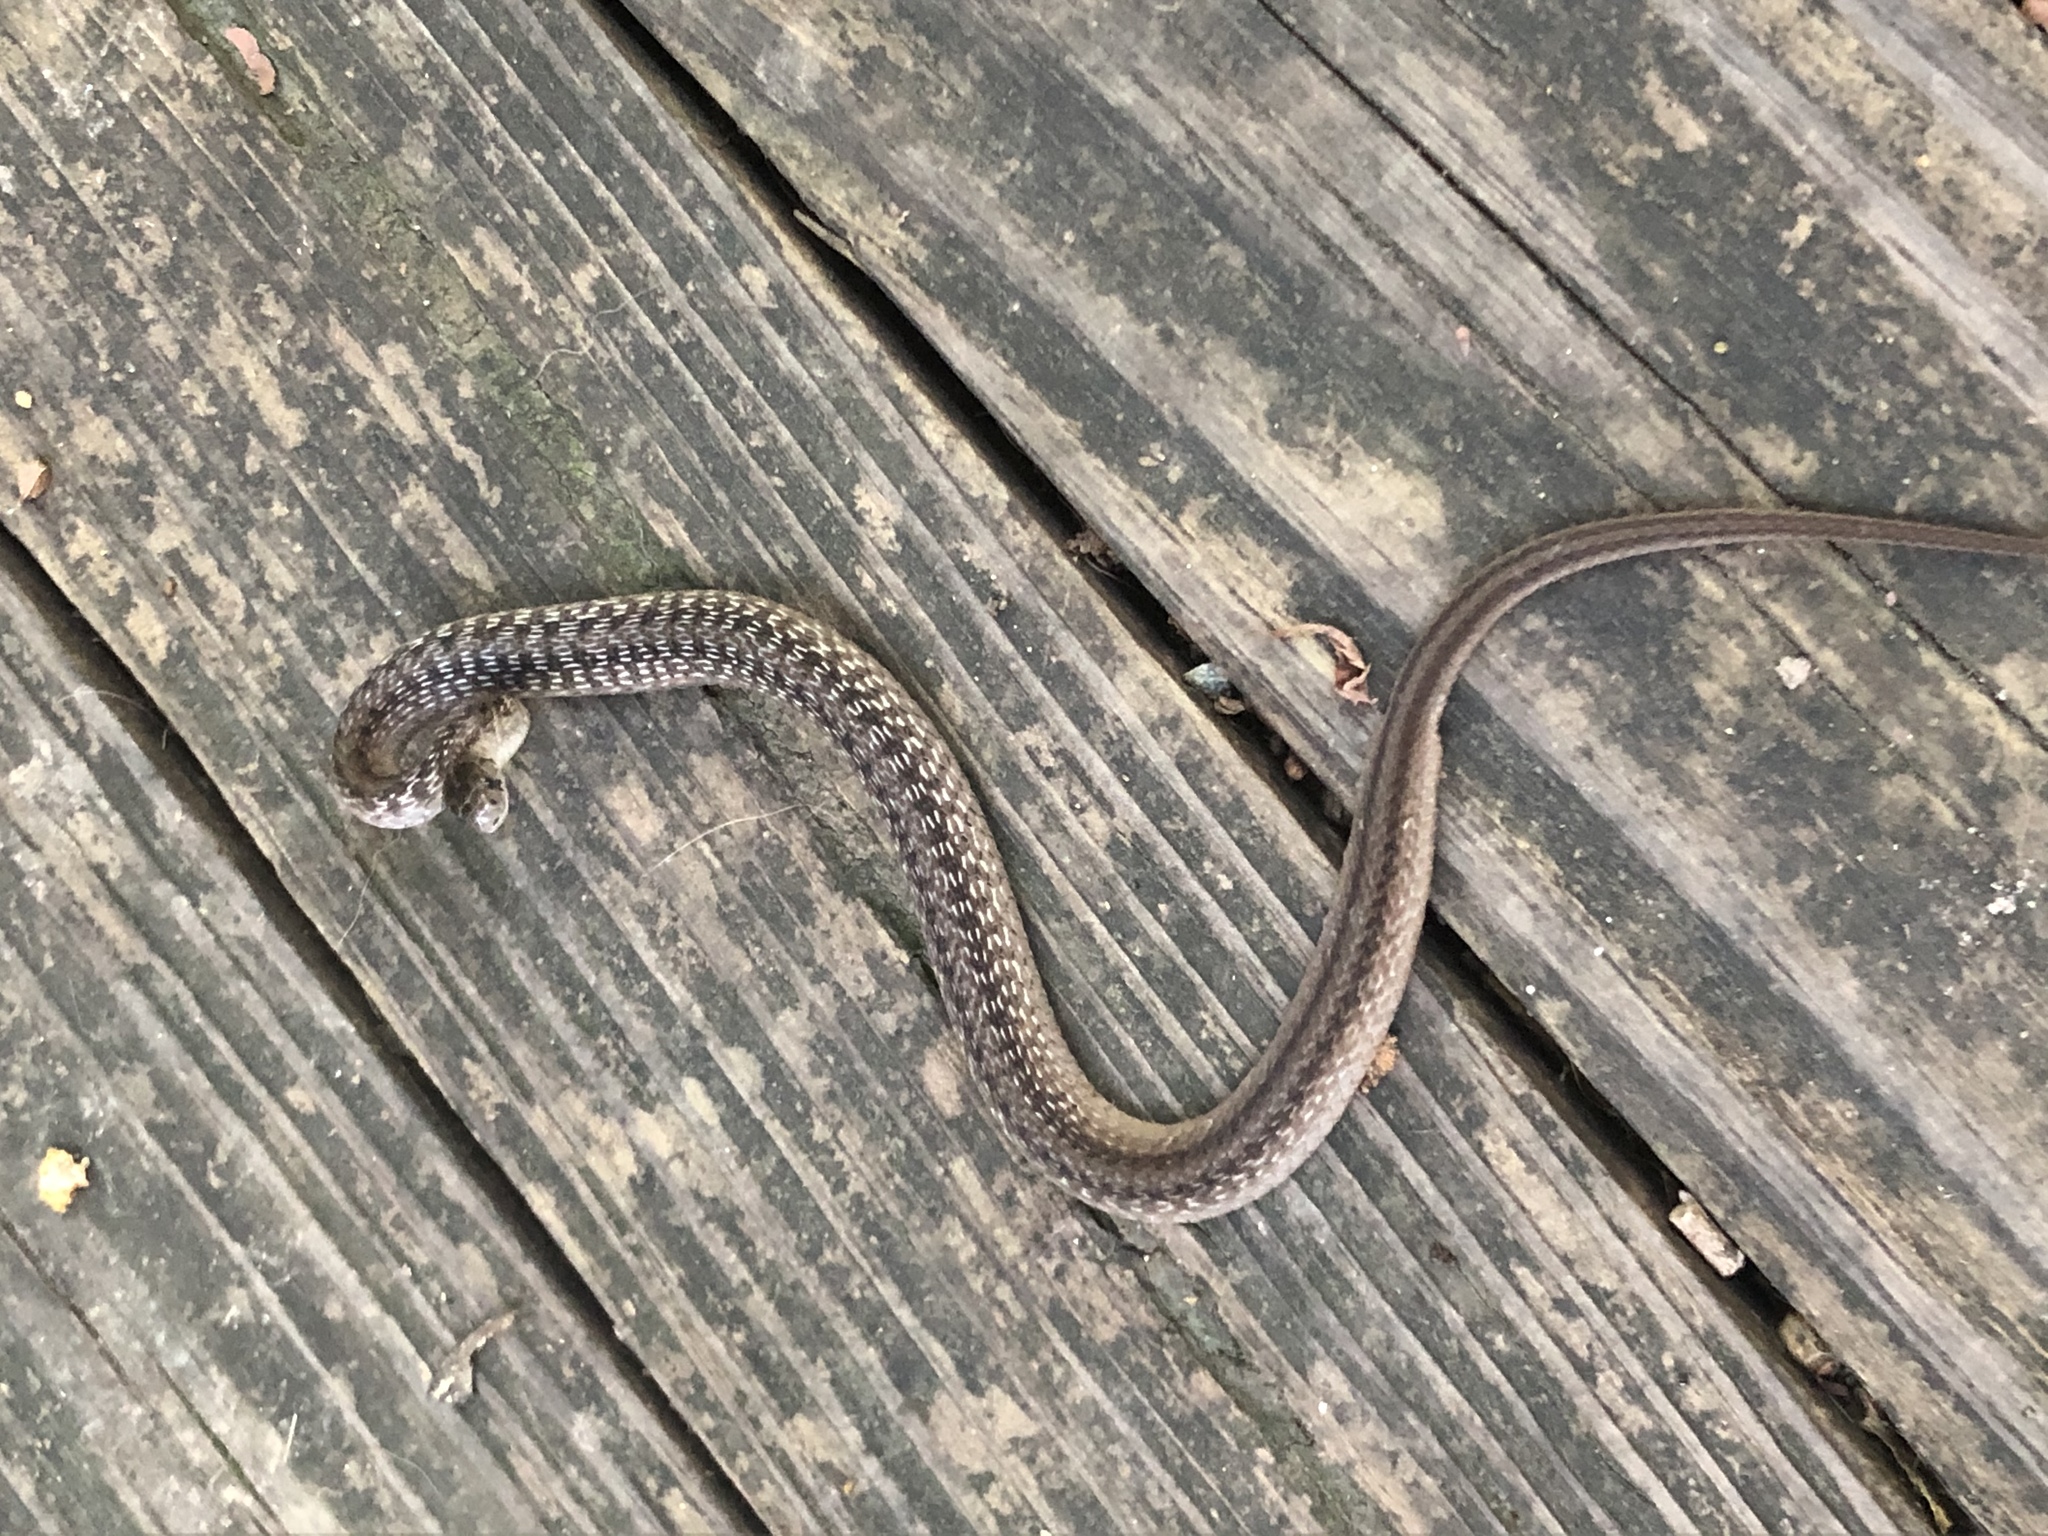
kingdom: Animalia
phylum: Chordata
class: Squamata
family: Colubridae
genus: Storeria
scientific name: Storeria dekayi
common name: (dekay’s) brown snake
